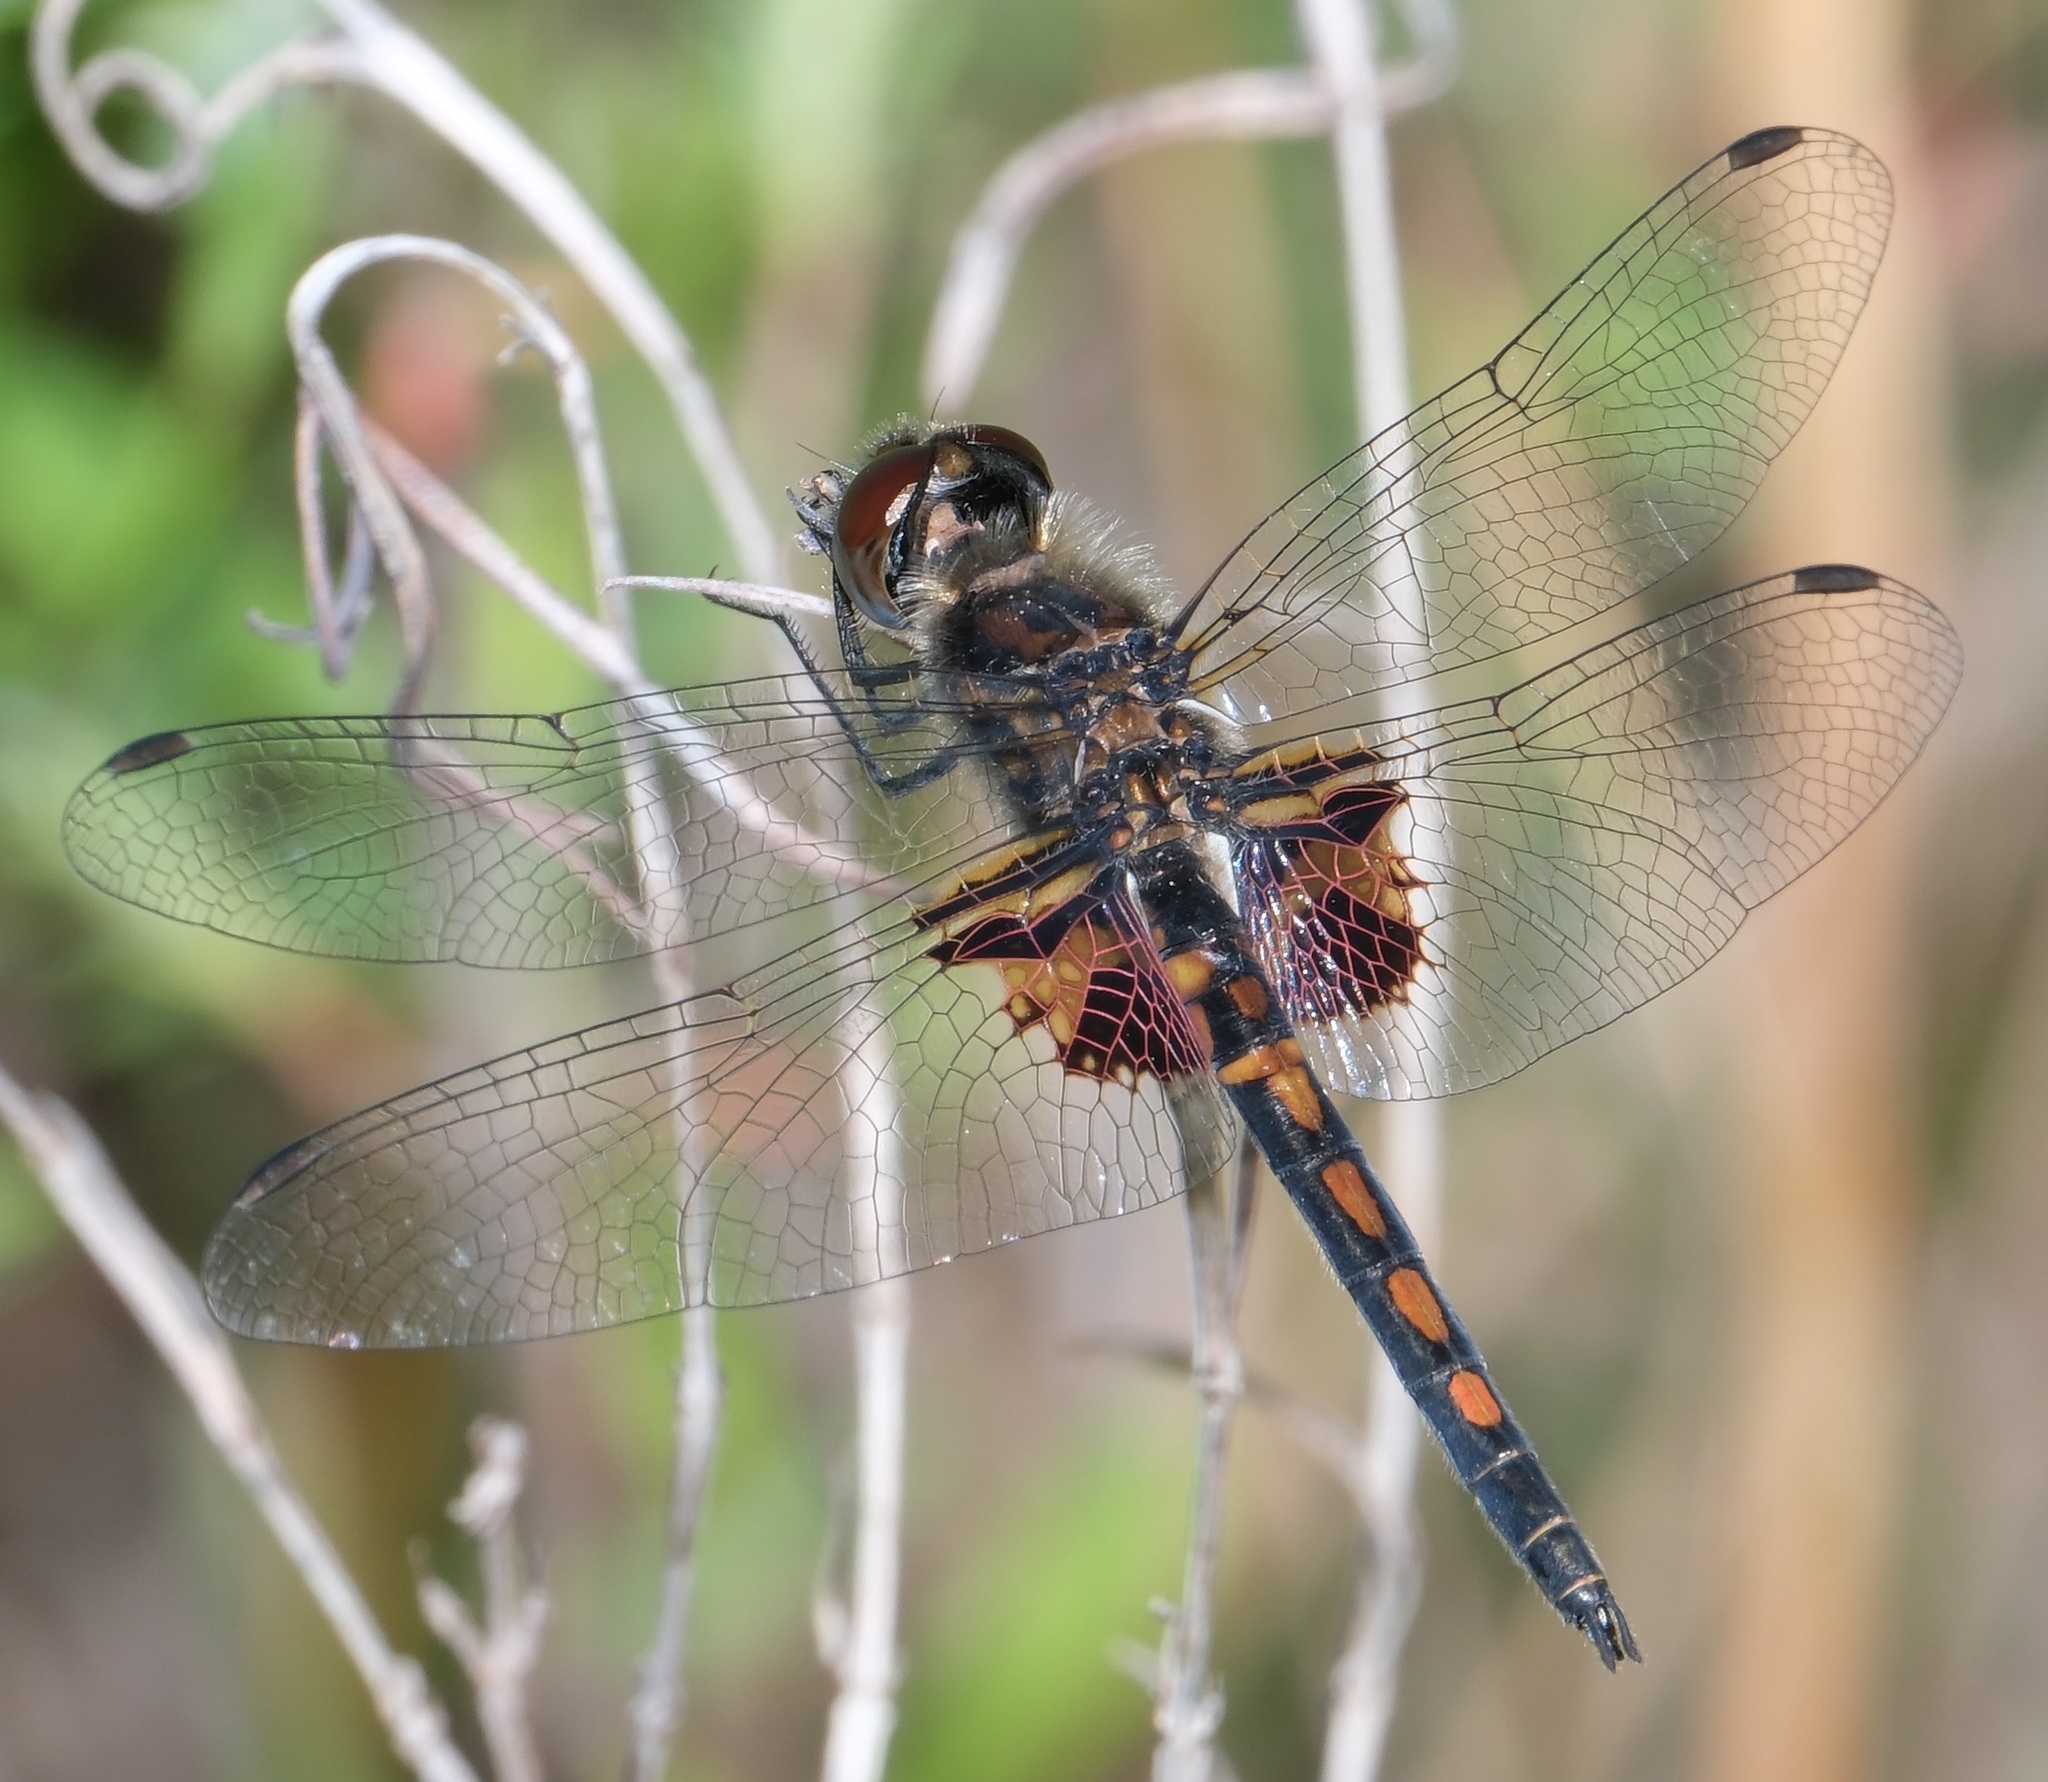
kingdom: Animalia
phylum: Arthropoda
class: Insecta
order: Odonata
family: Libellulidae
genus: Celithemis
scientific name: Celithemis ornata
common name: Ornate pennant
